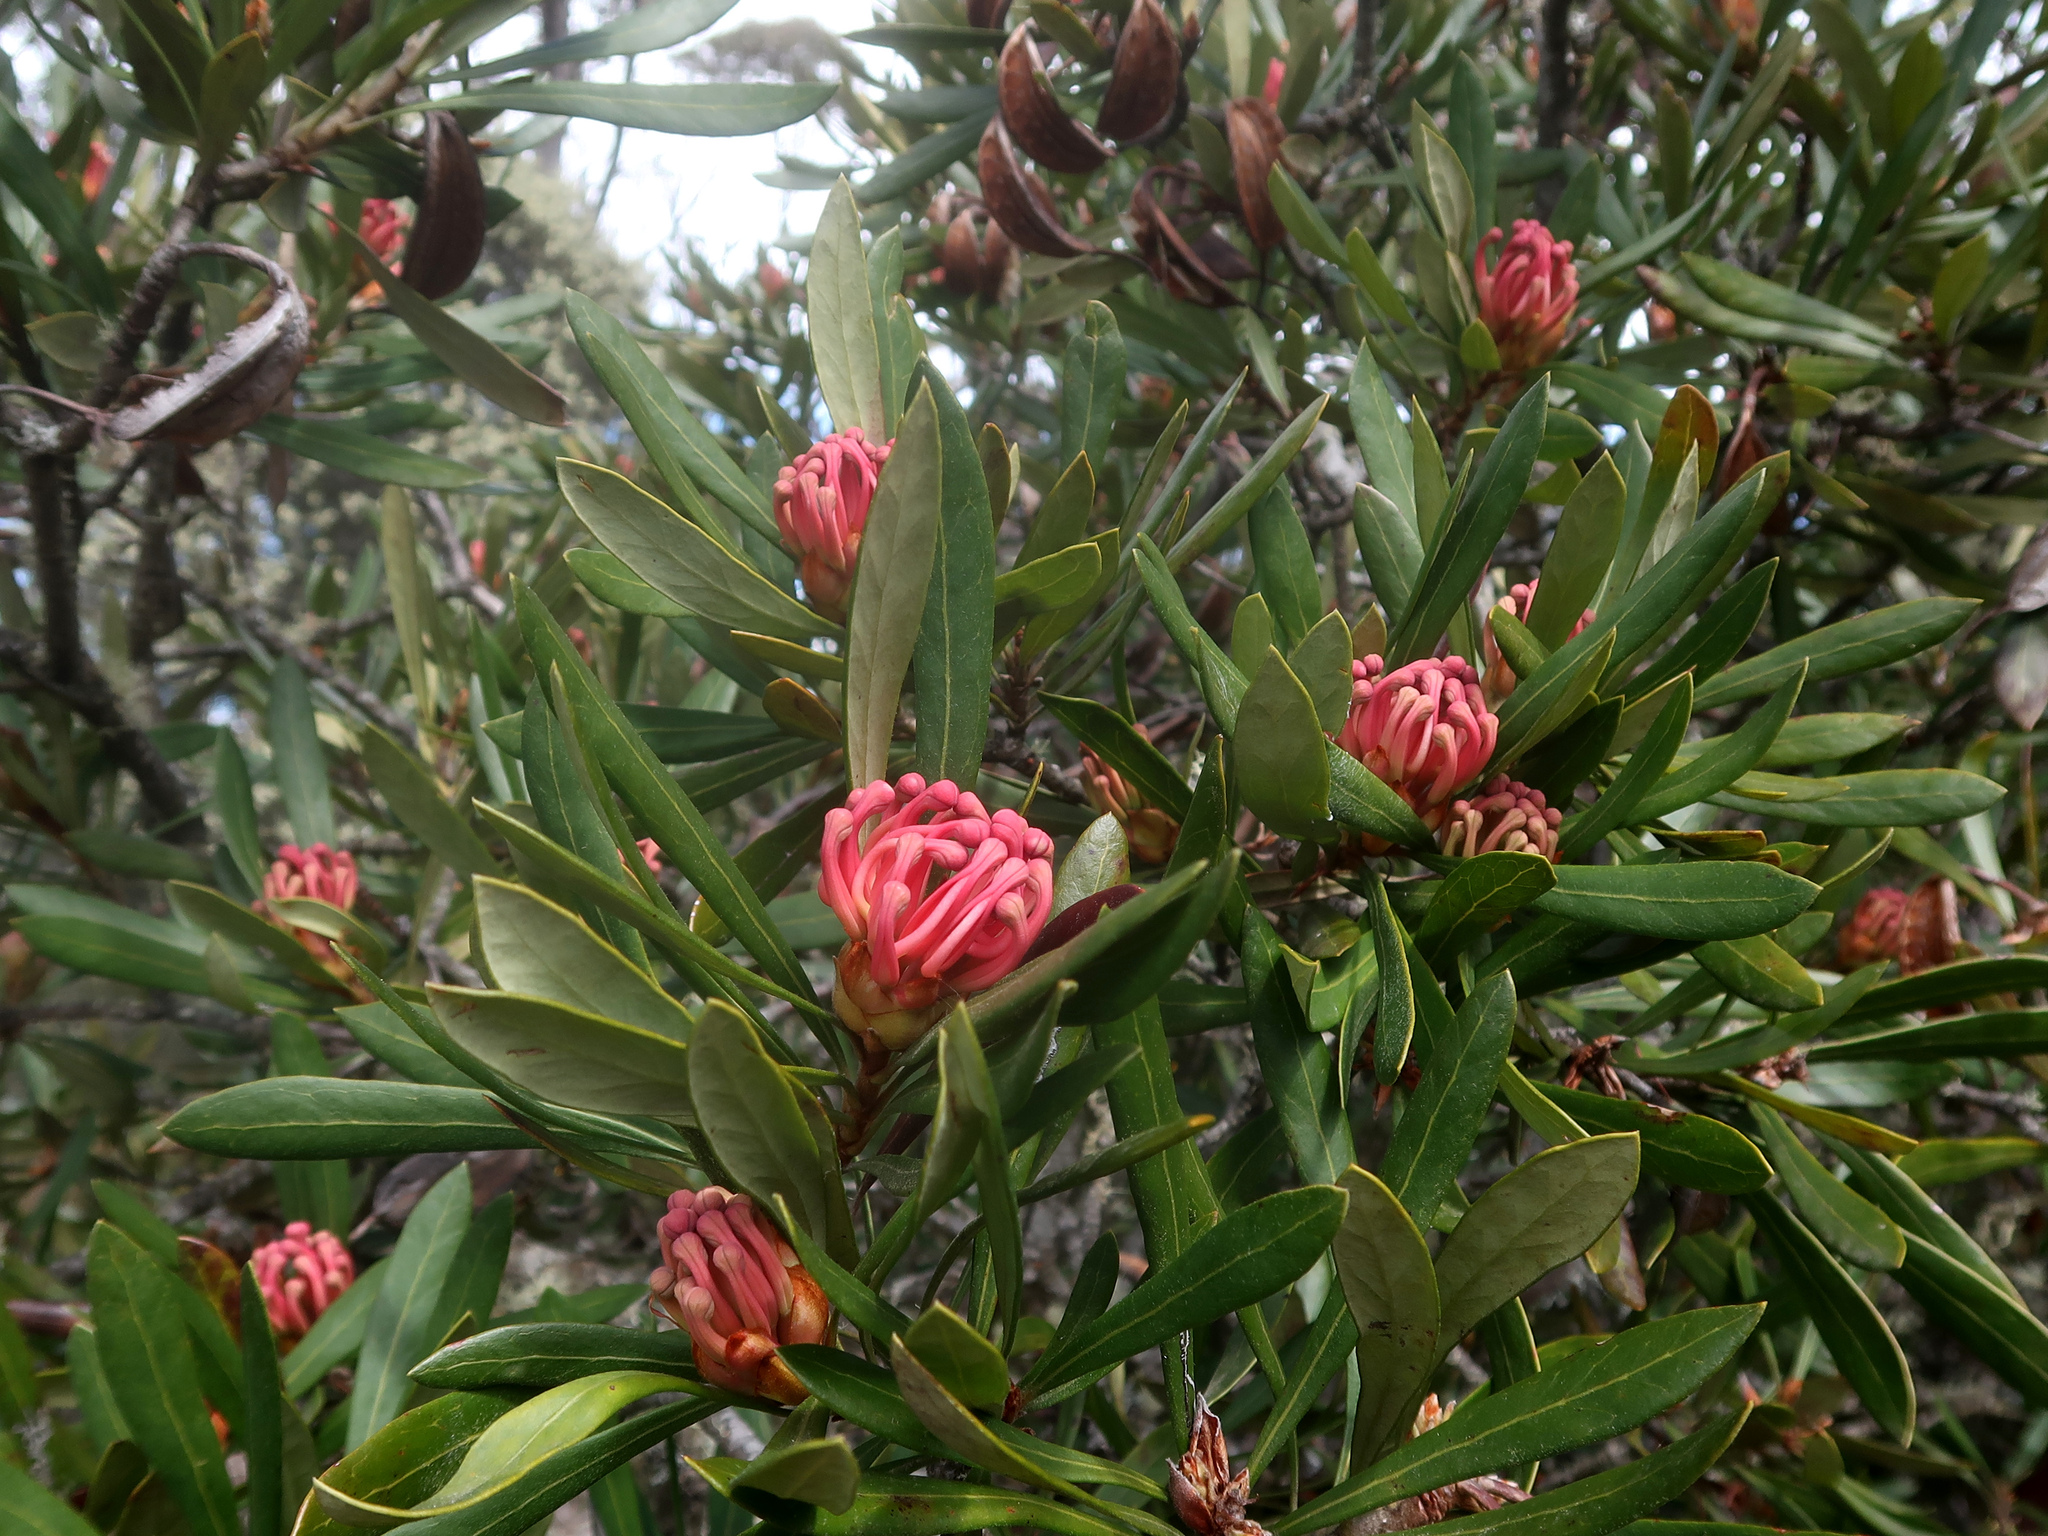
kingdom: Plantae
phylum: Tracheophyta
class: Magnoliopsida
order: Proteales
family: Proteaceae
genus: Telopea
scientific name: Telopea truncata
